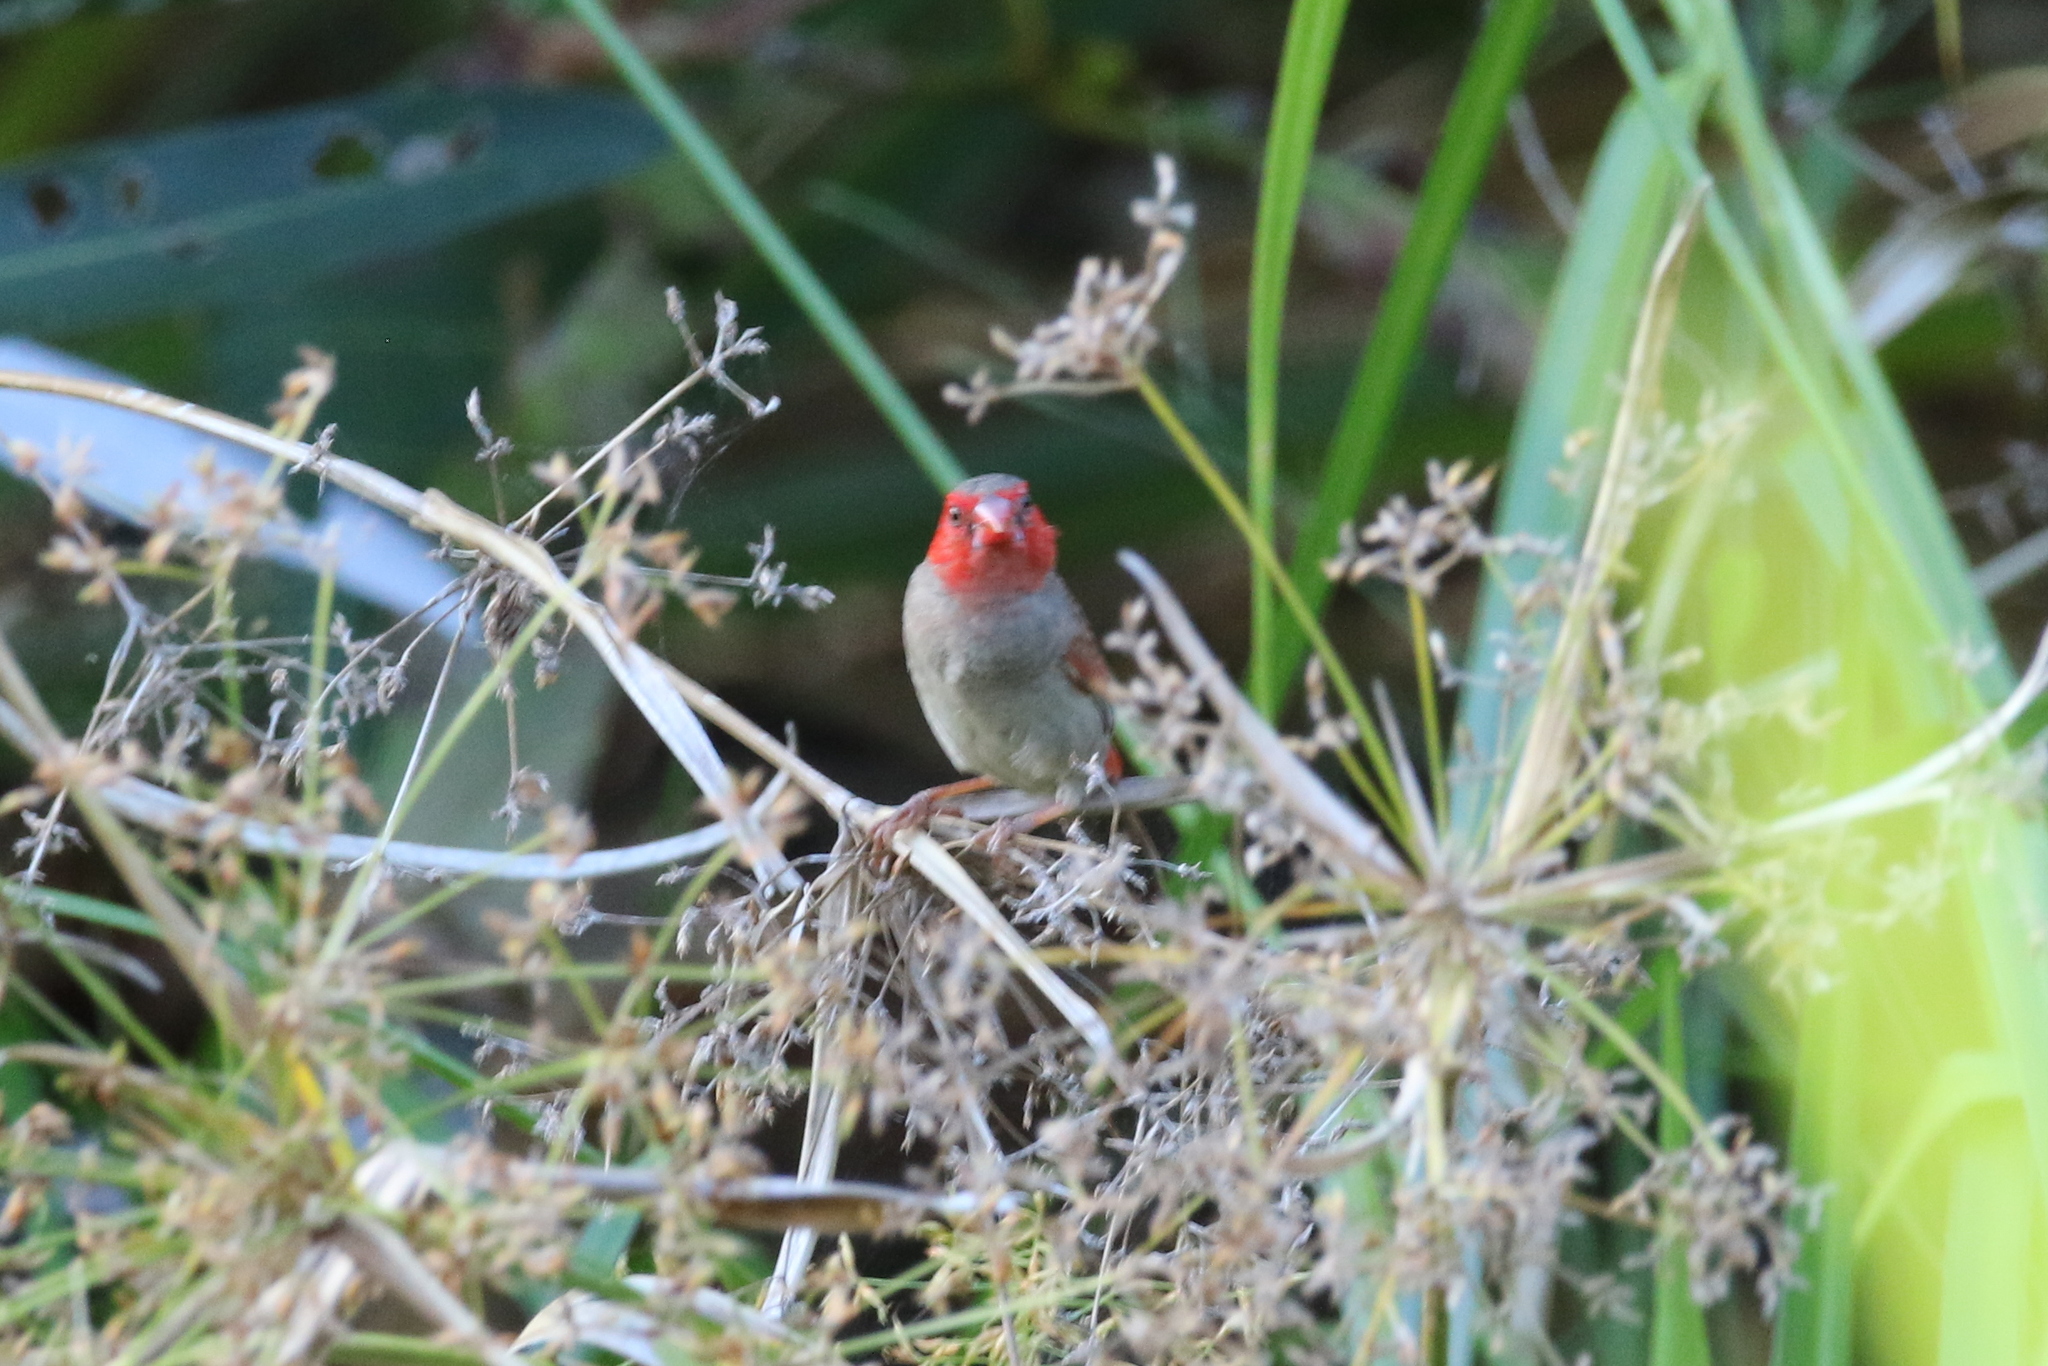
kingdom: Animalia
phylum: Chordata
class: Aves
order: Passeriformes
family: Estrildidae
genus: Neochmia
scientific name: Neochmia phaeton
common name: Crimson finch
